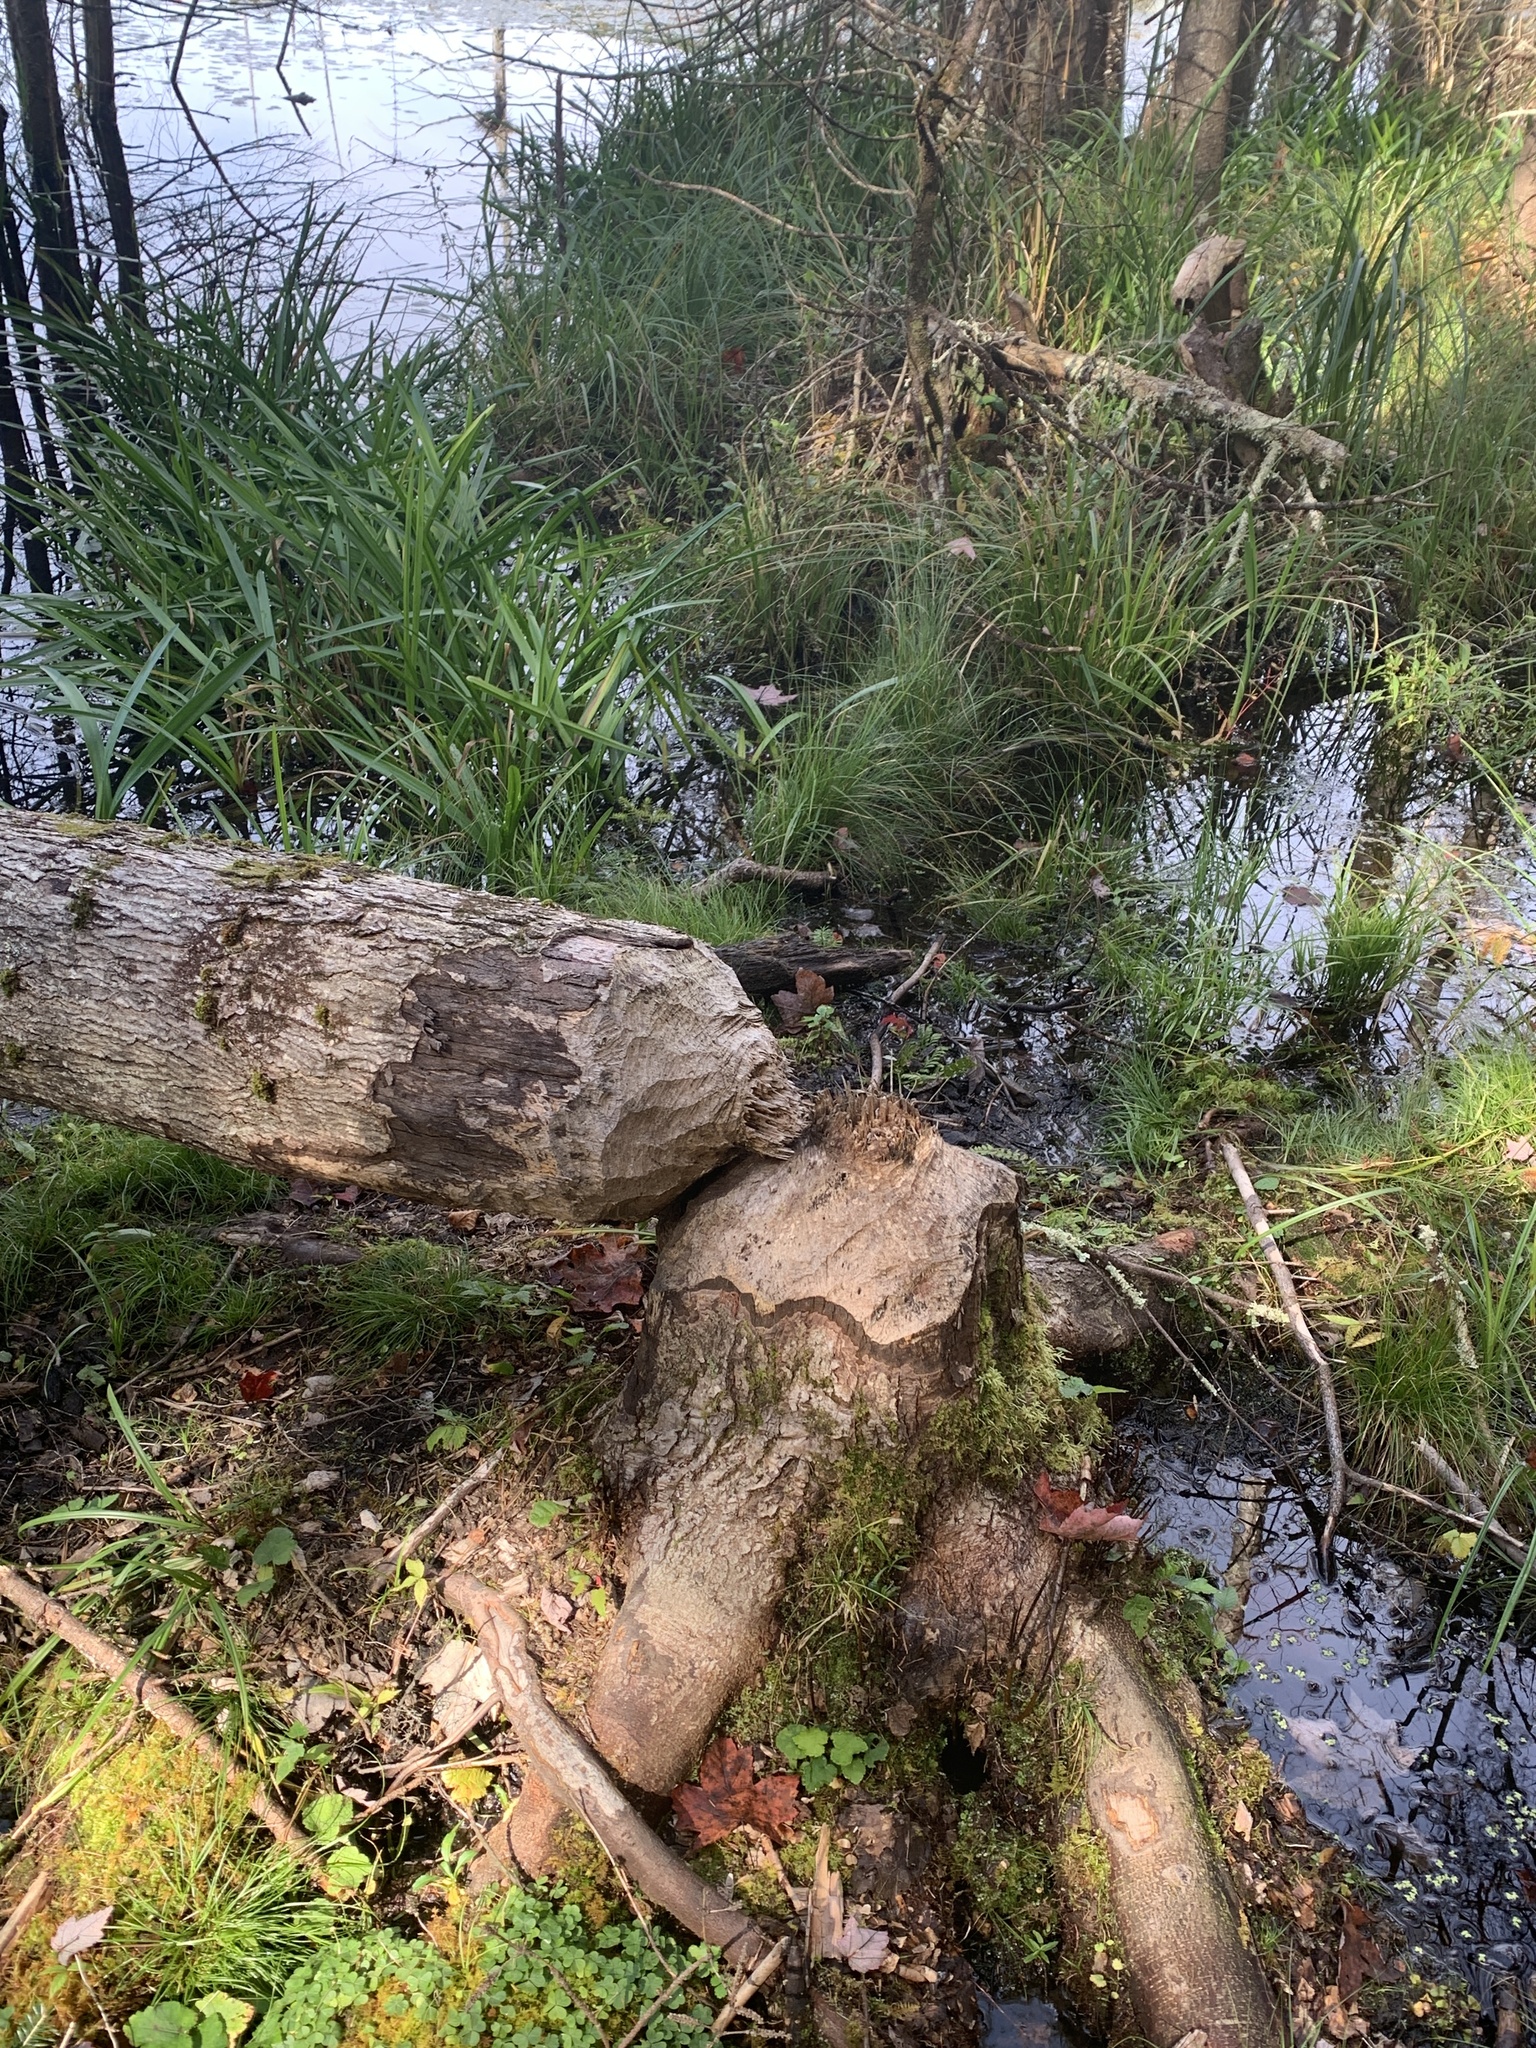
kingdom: Animalia
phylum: Chordata
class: Mammalia
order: Rodentia
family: Castoridae
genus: Castor
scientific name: Castor canadensis
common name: American beaver
